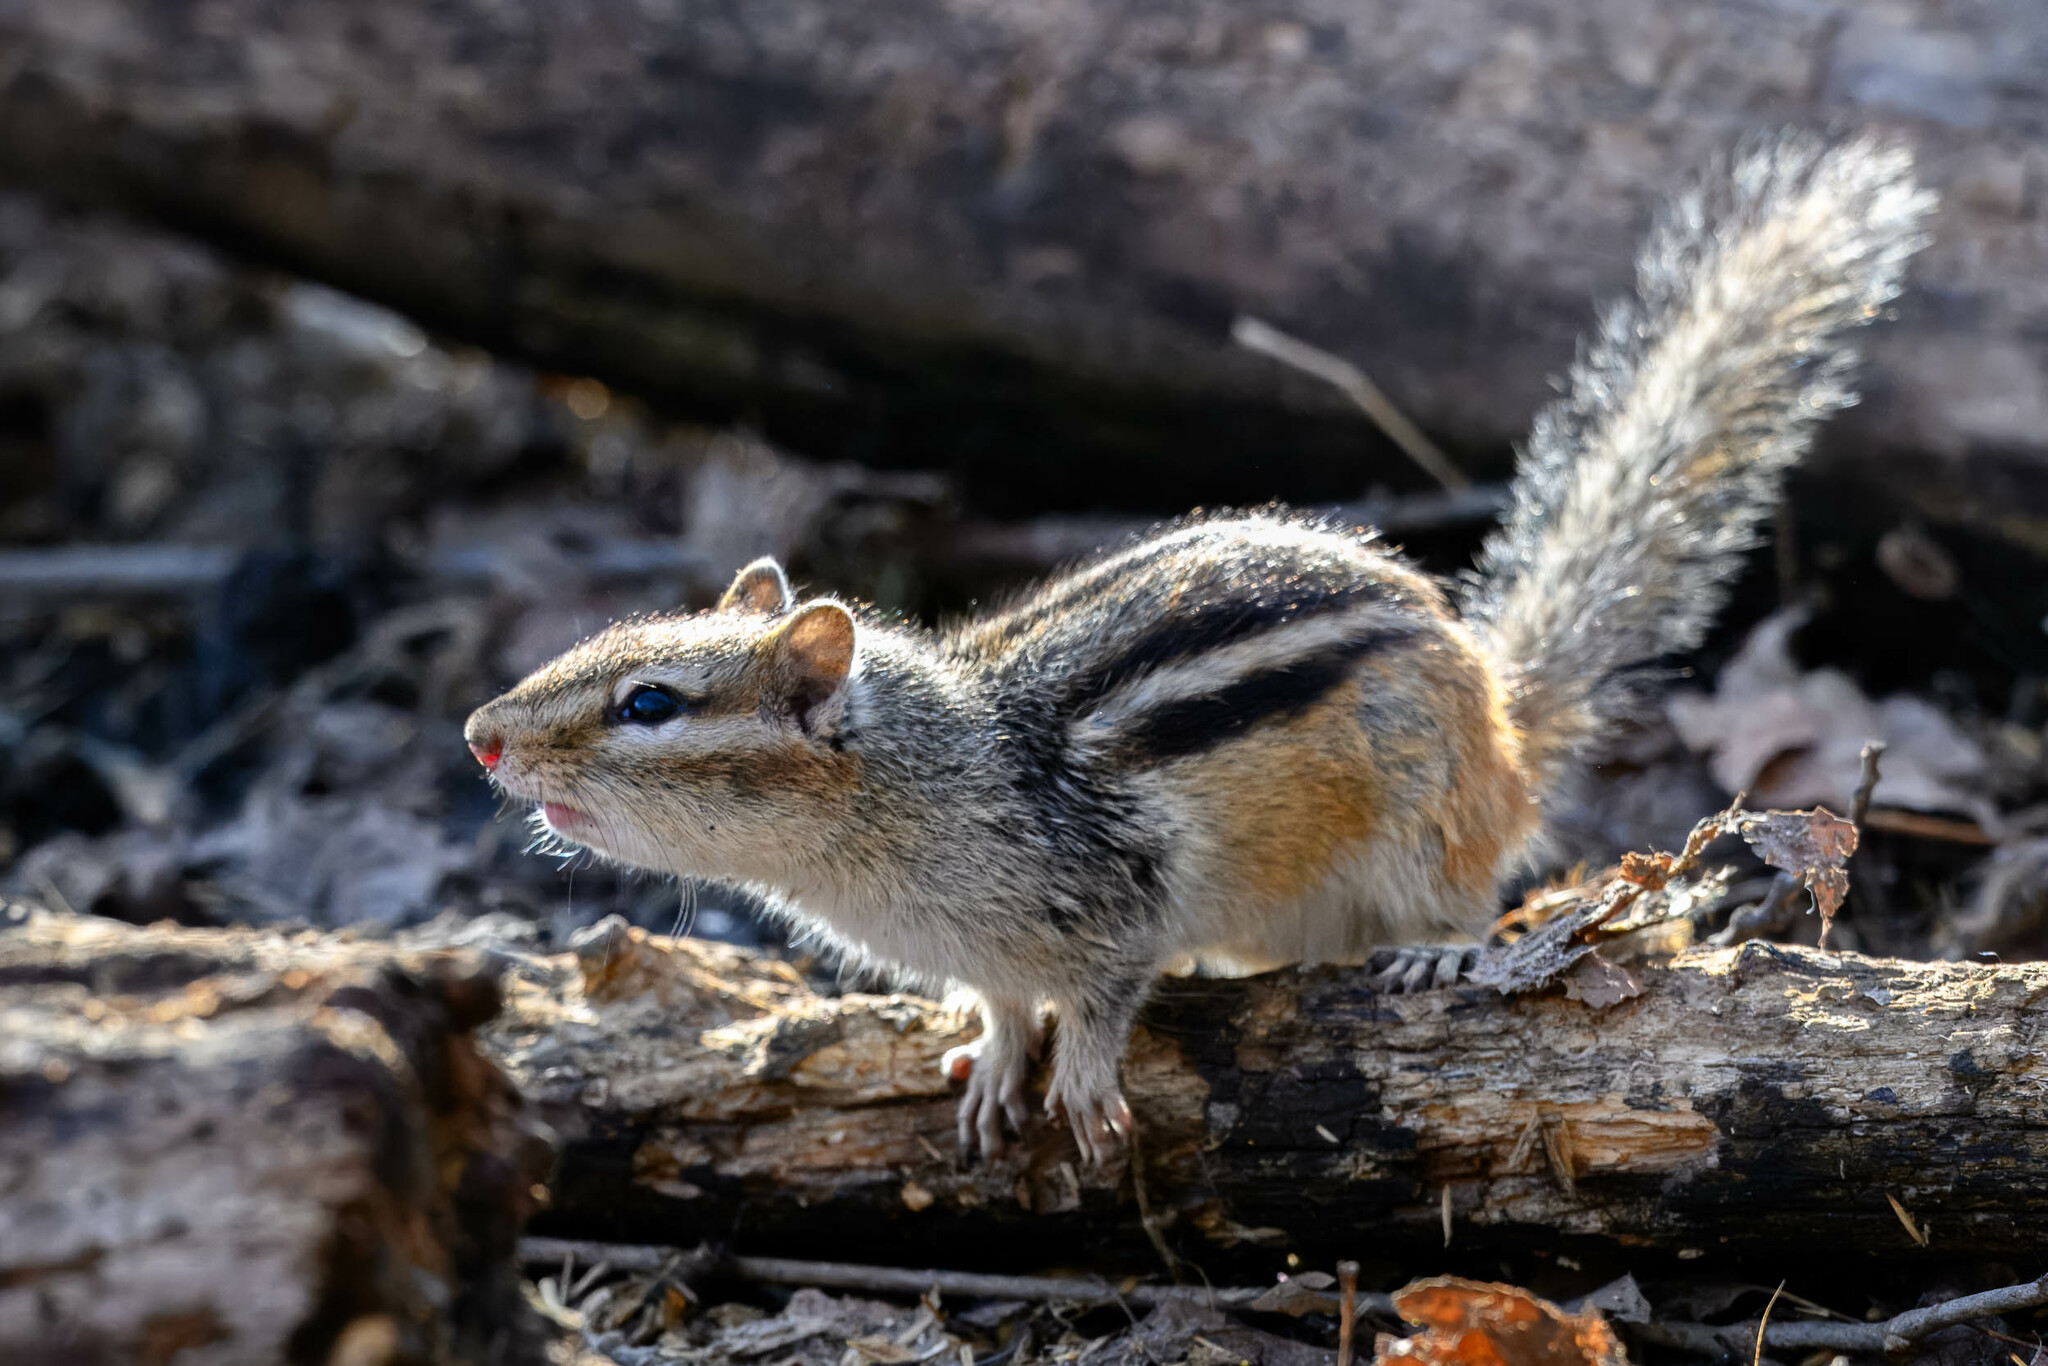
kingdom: Animalia
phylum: Chordata
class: Mammalia
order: Rodentia
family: Sciuridae
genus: Tamias
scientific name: Tamias striatus
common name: Eastern chipmunk
